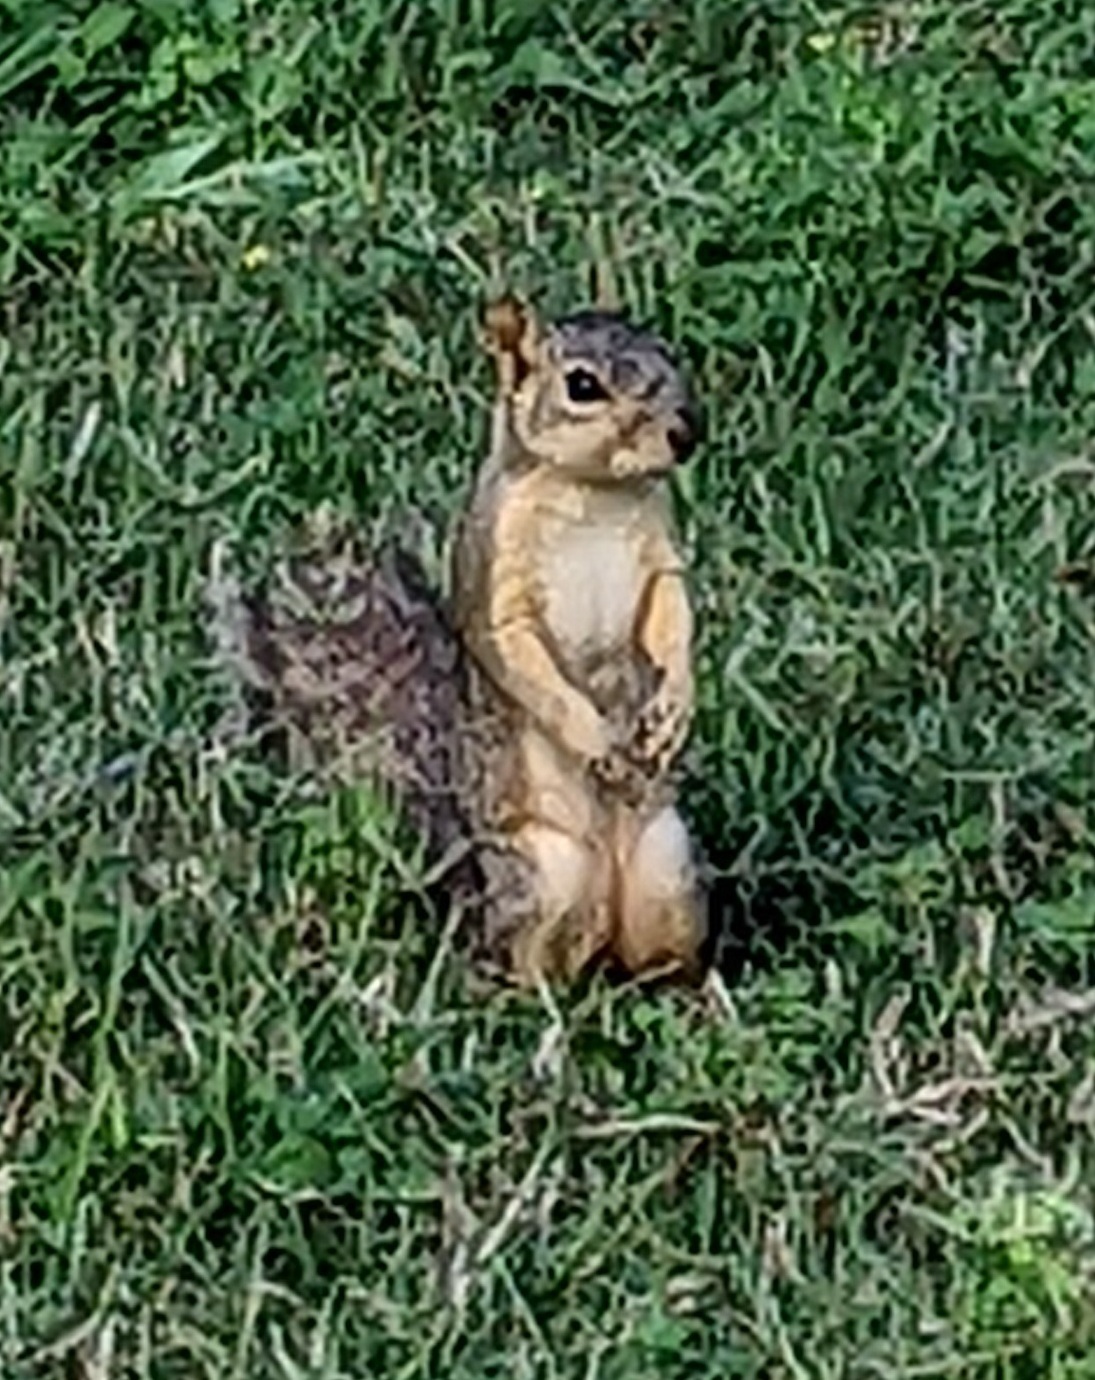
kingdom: Animalia
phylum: Chordata
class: Mammalia
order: Rodentia
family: Sciuridae
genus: Sciurus
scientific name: Sciurus niger
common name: Fox squirrel
